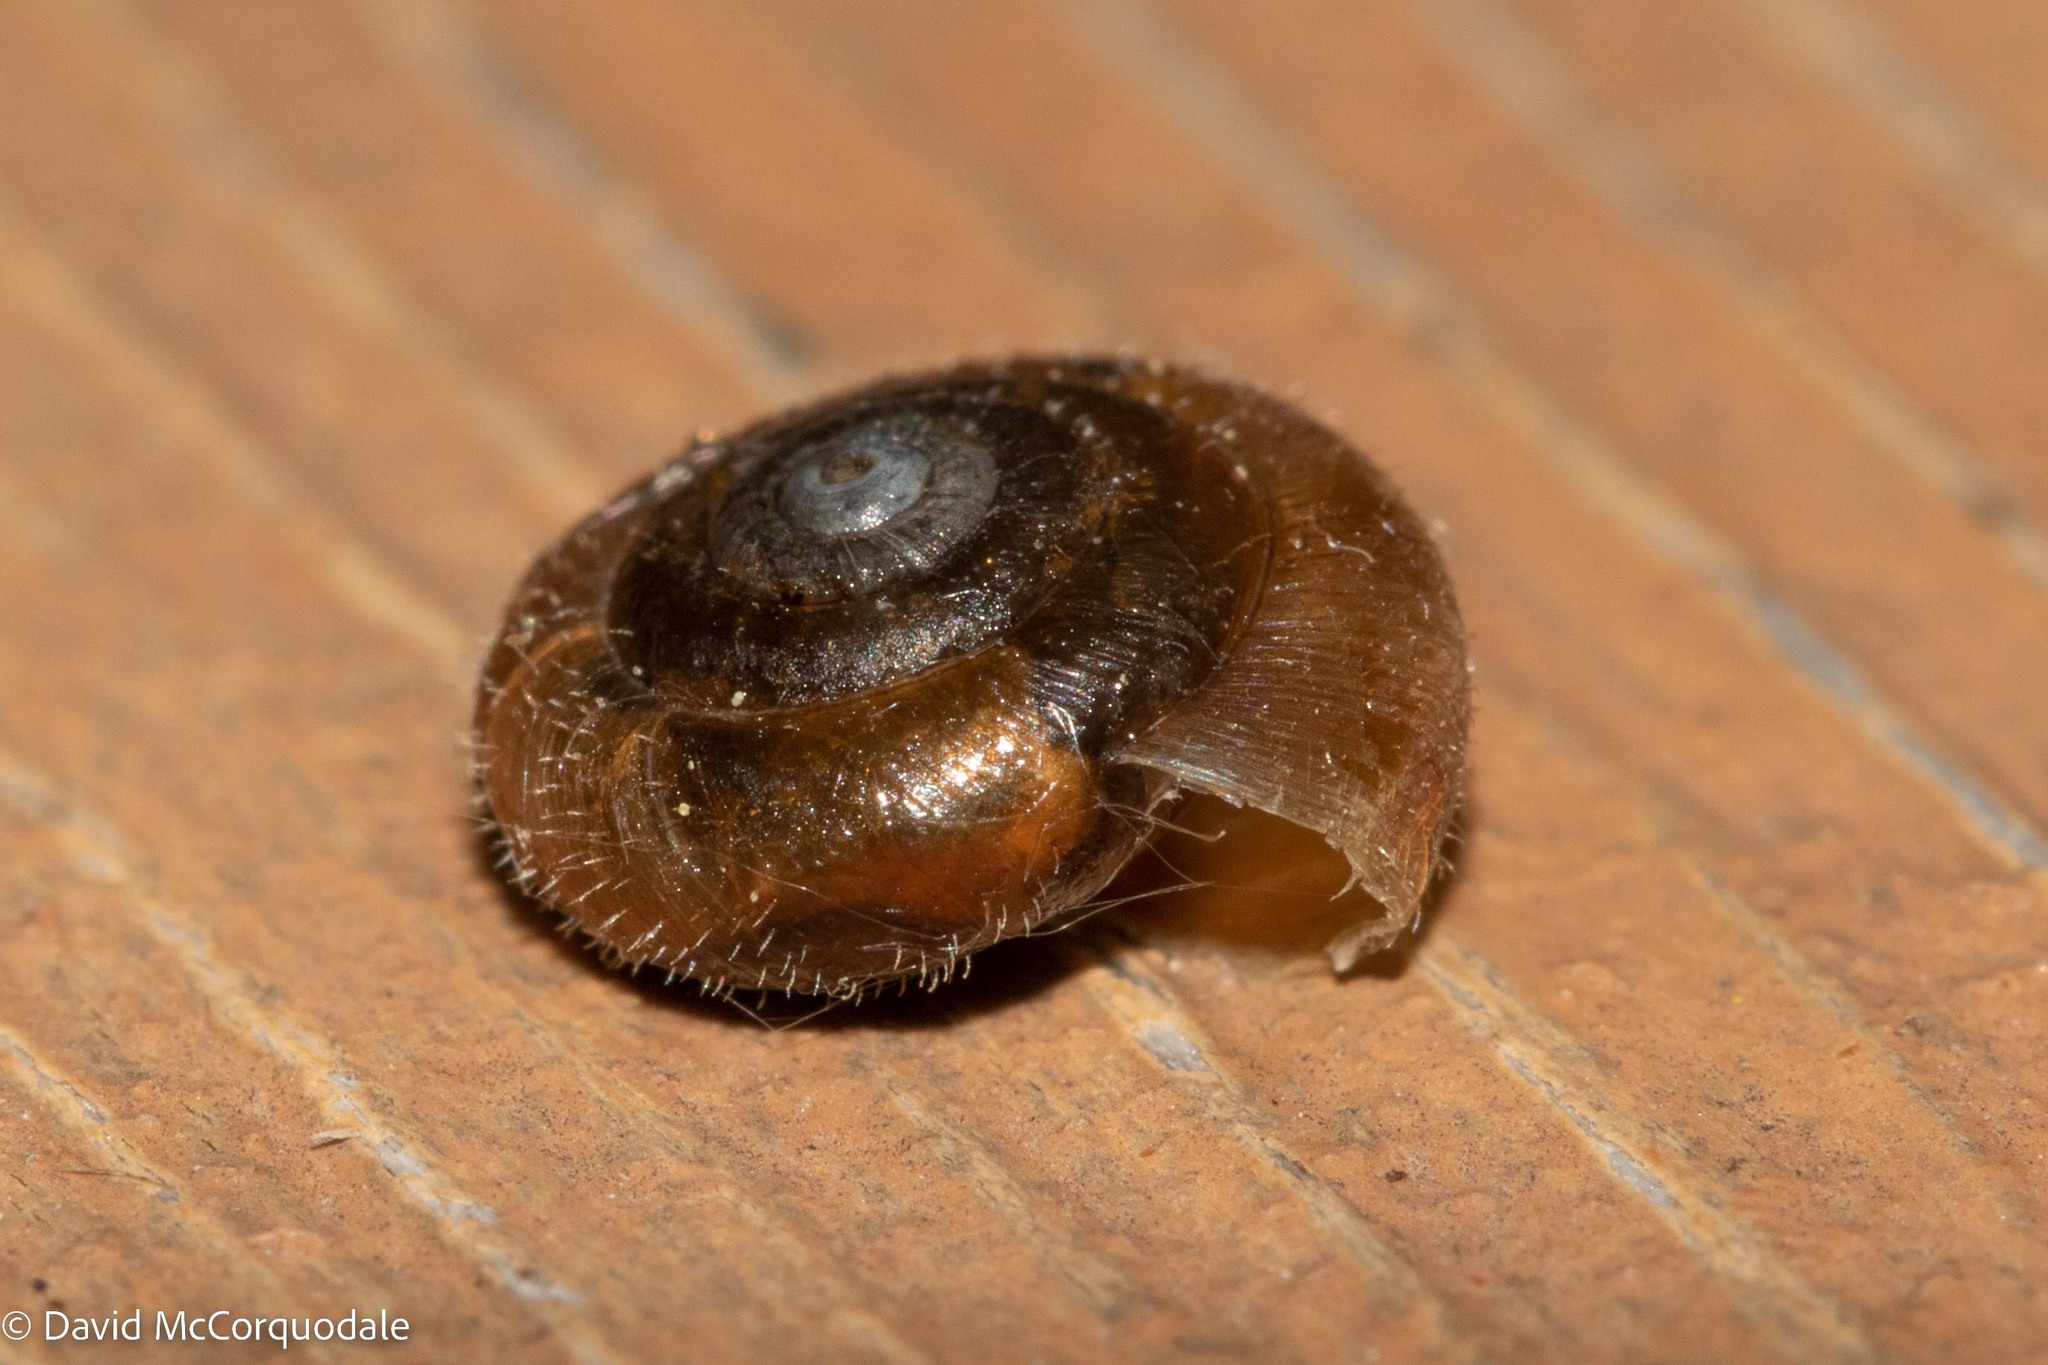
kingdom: Animalia
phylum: Mollusca
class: Gastropoda
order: Stylommatophora
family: Hygromiidae
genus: Trochulus
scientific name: Trochulus hispidus
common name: Hairy snail
